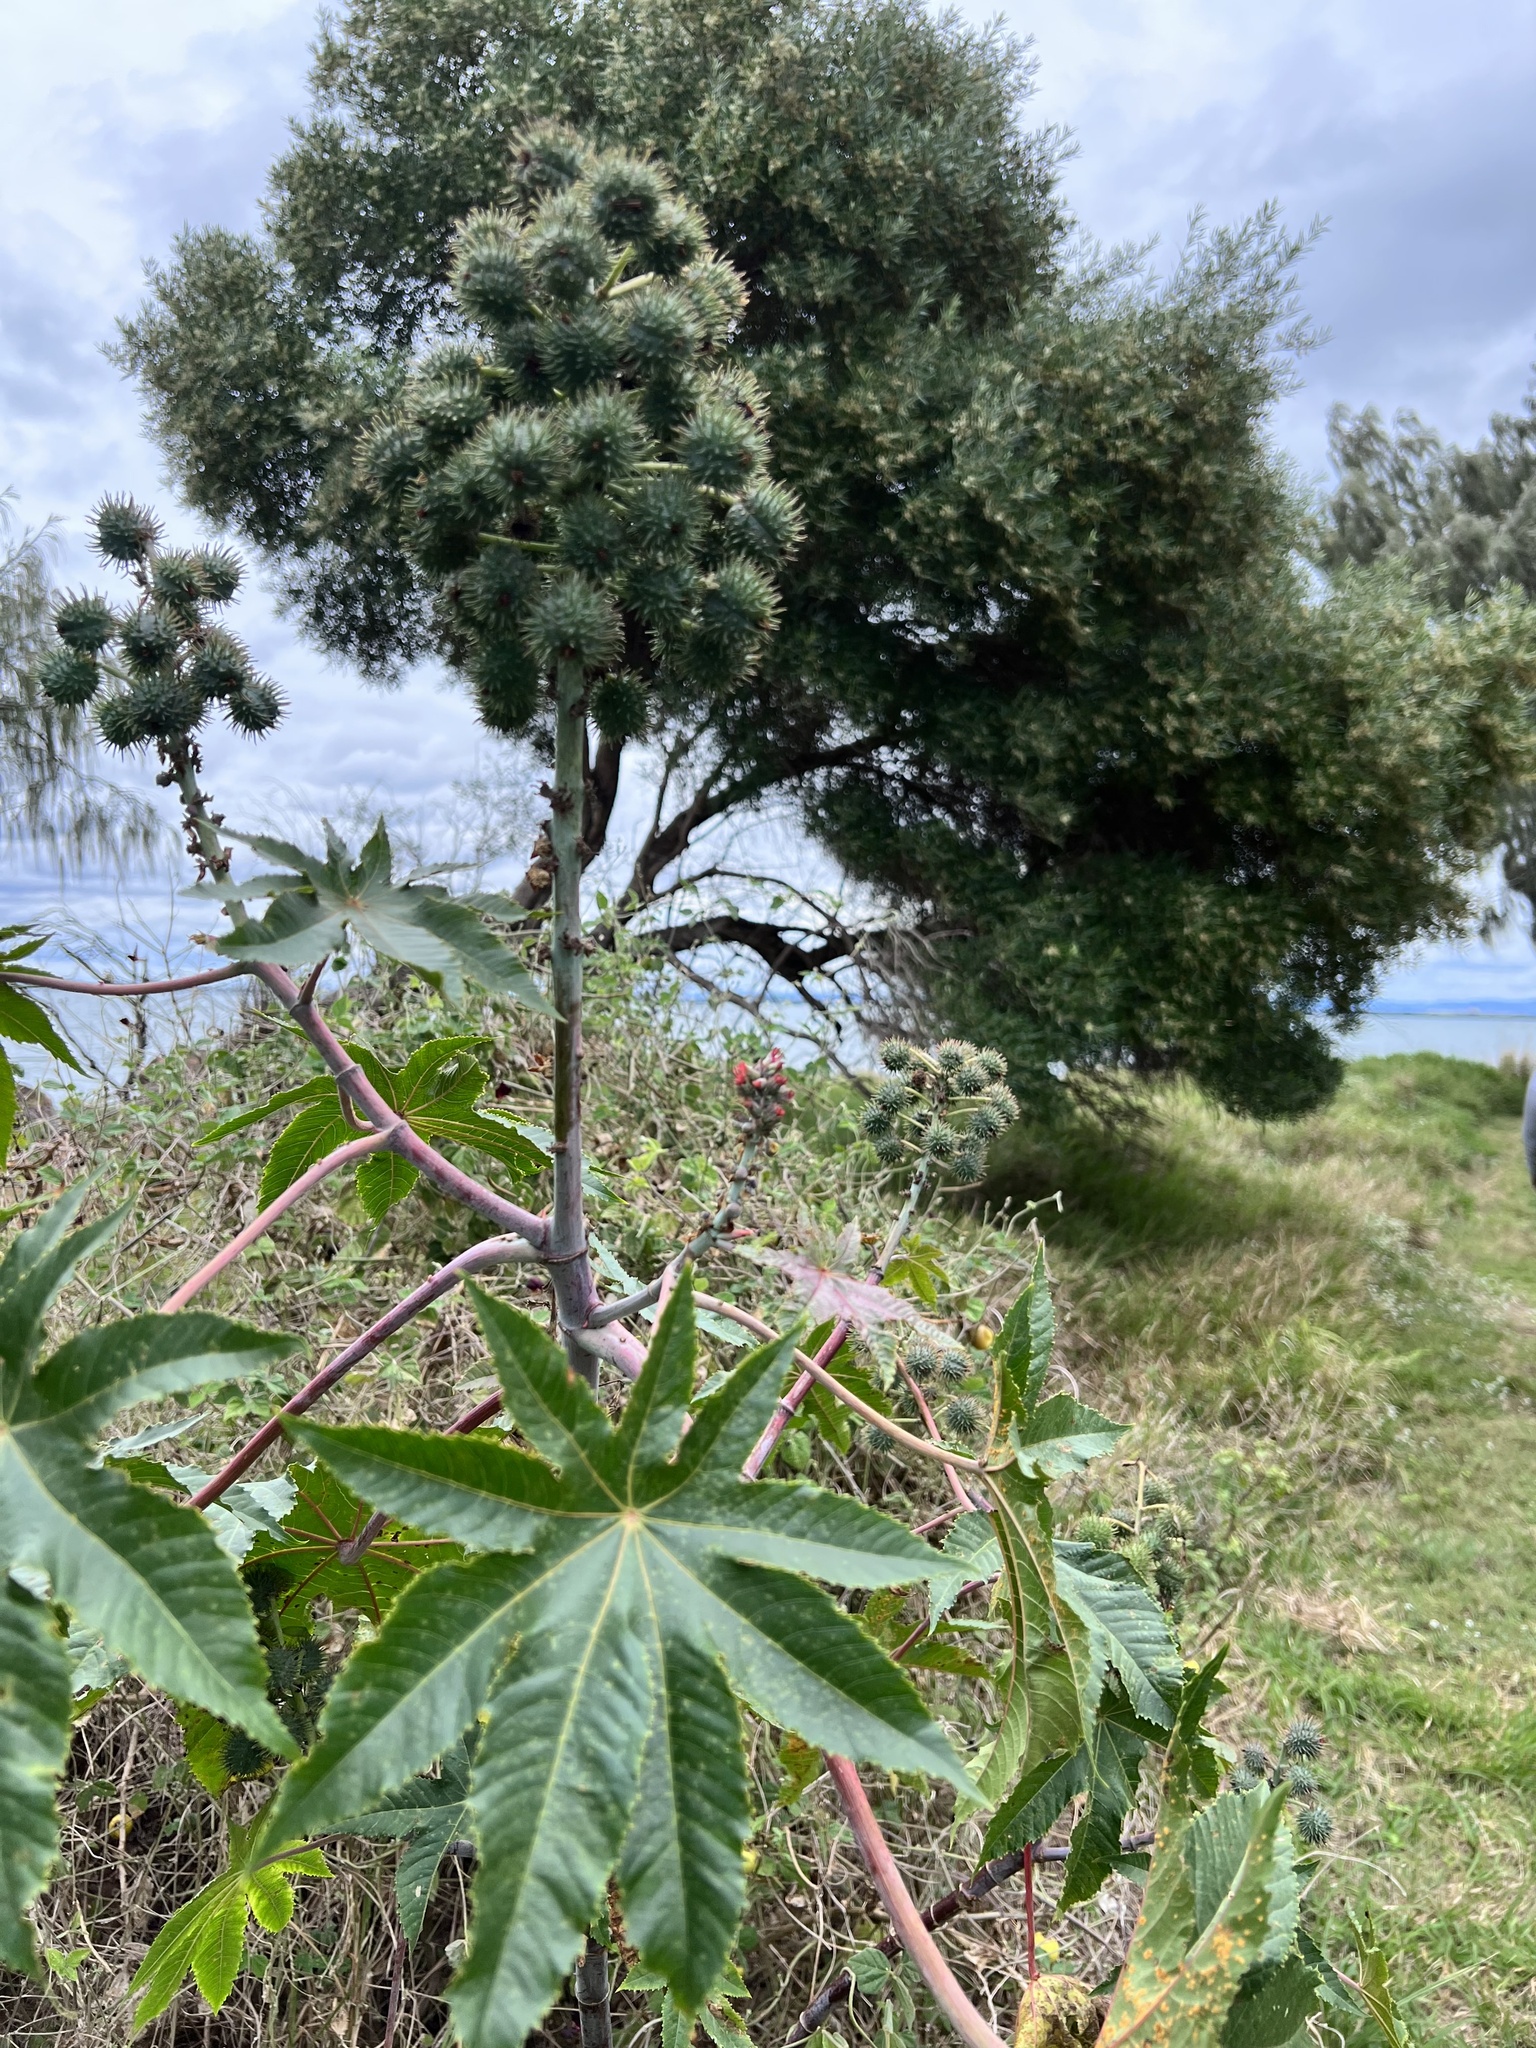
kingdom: Plantae
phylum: Tracheophyta
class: Magnoliopsida
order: Malpighiales
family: Euphorbiaceae
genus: Ricinus
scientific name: Ricinus communis
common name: Castor-oil-plant
